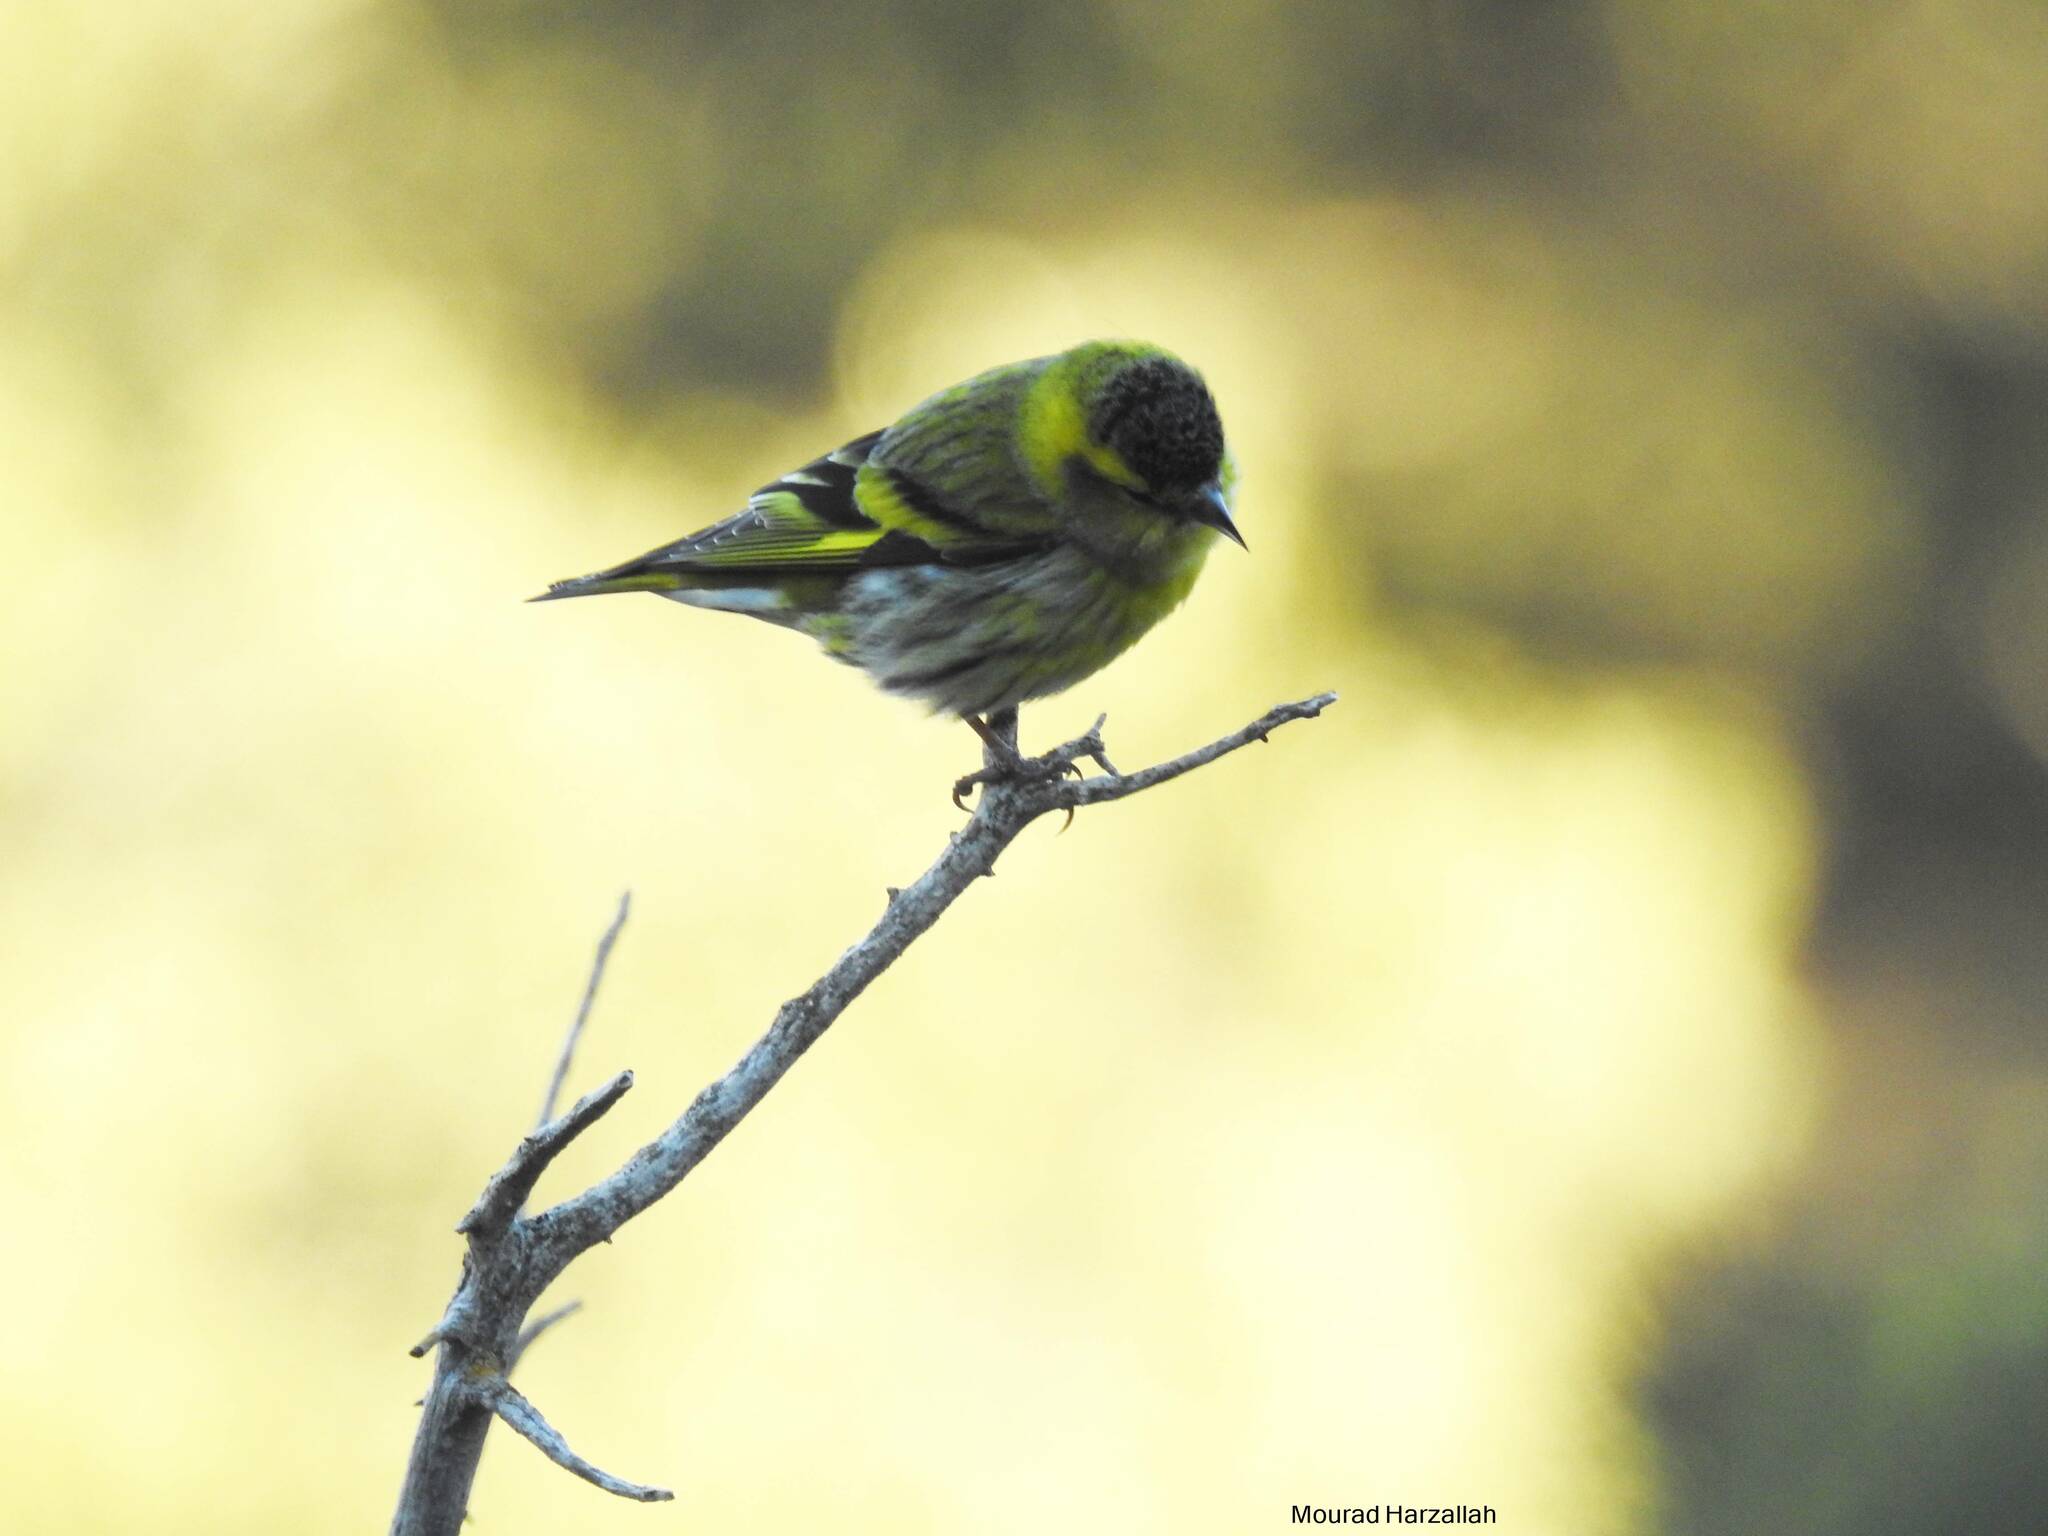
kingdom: Animalia
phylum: Chordata
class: Aves
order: Passeriformes
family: Fringillidae
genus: Spinus
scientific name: Spinus spinus
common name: Eurasian siskin
